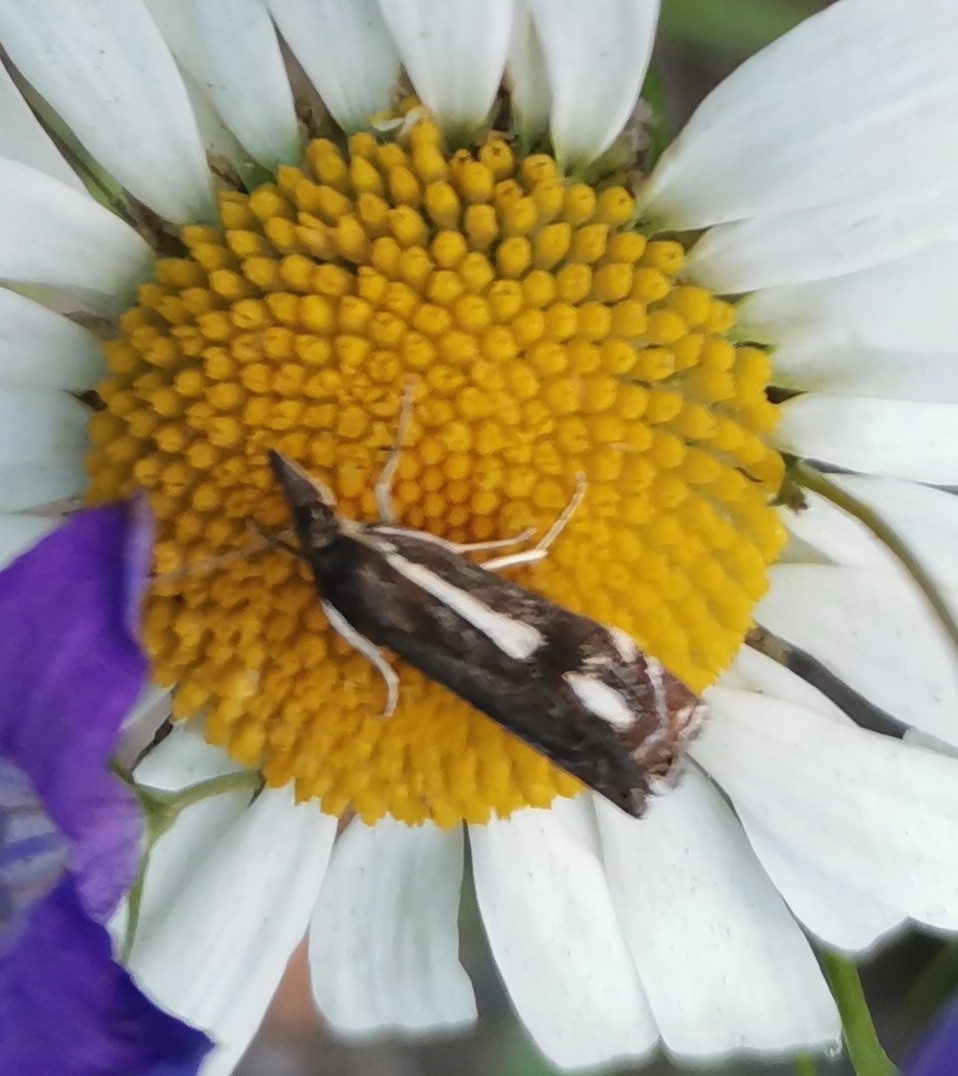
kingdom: Animalia
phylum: Arthropoda
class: Insecta
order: Lepidoptera
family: Crambidae
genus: Crambus
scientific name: Crambus heringiellus
